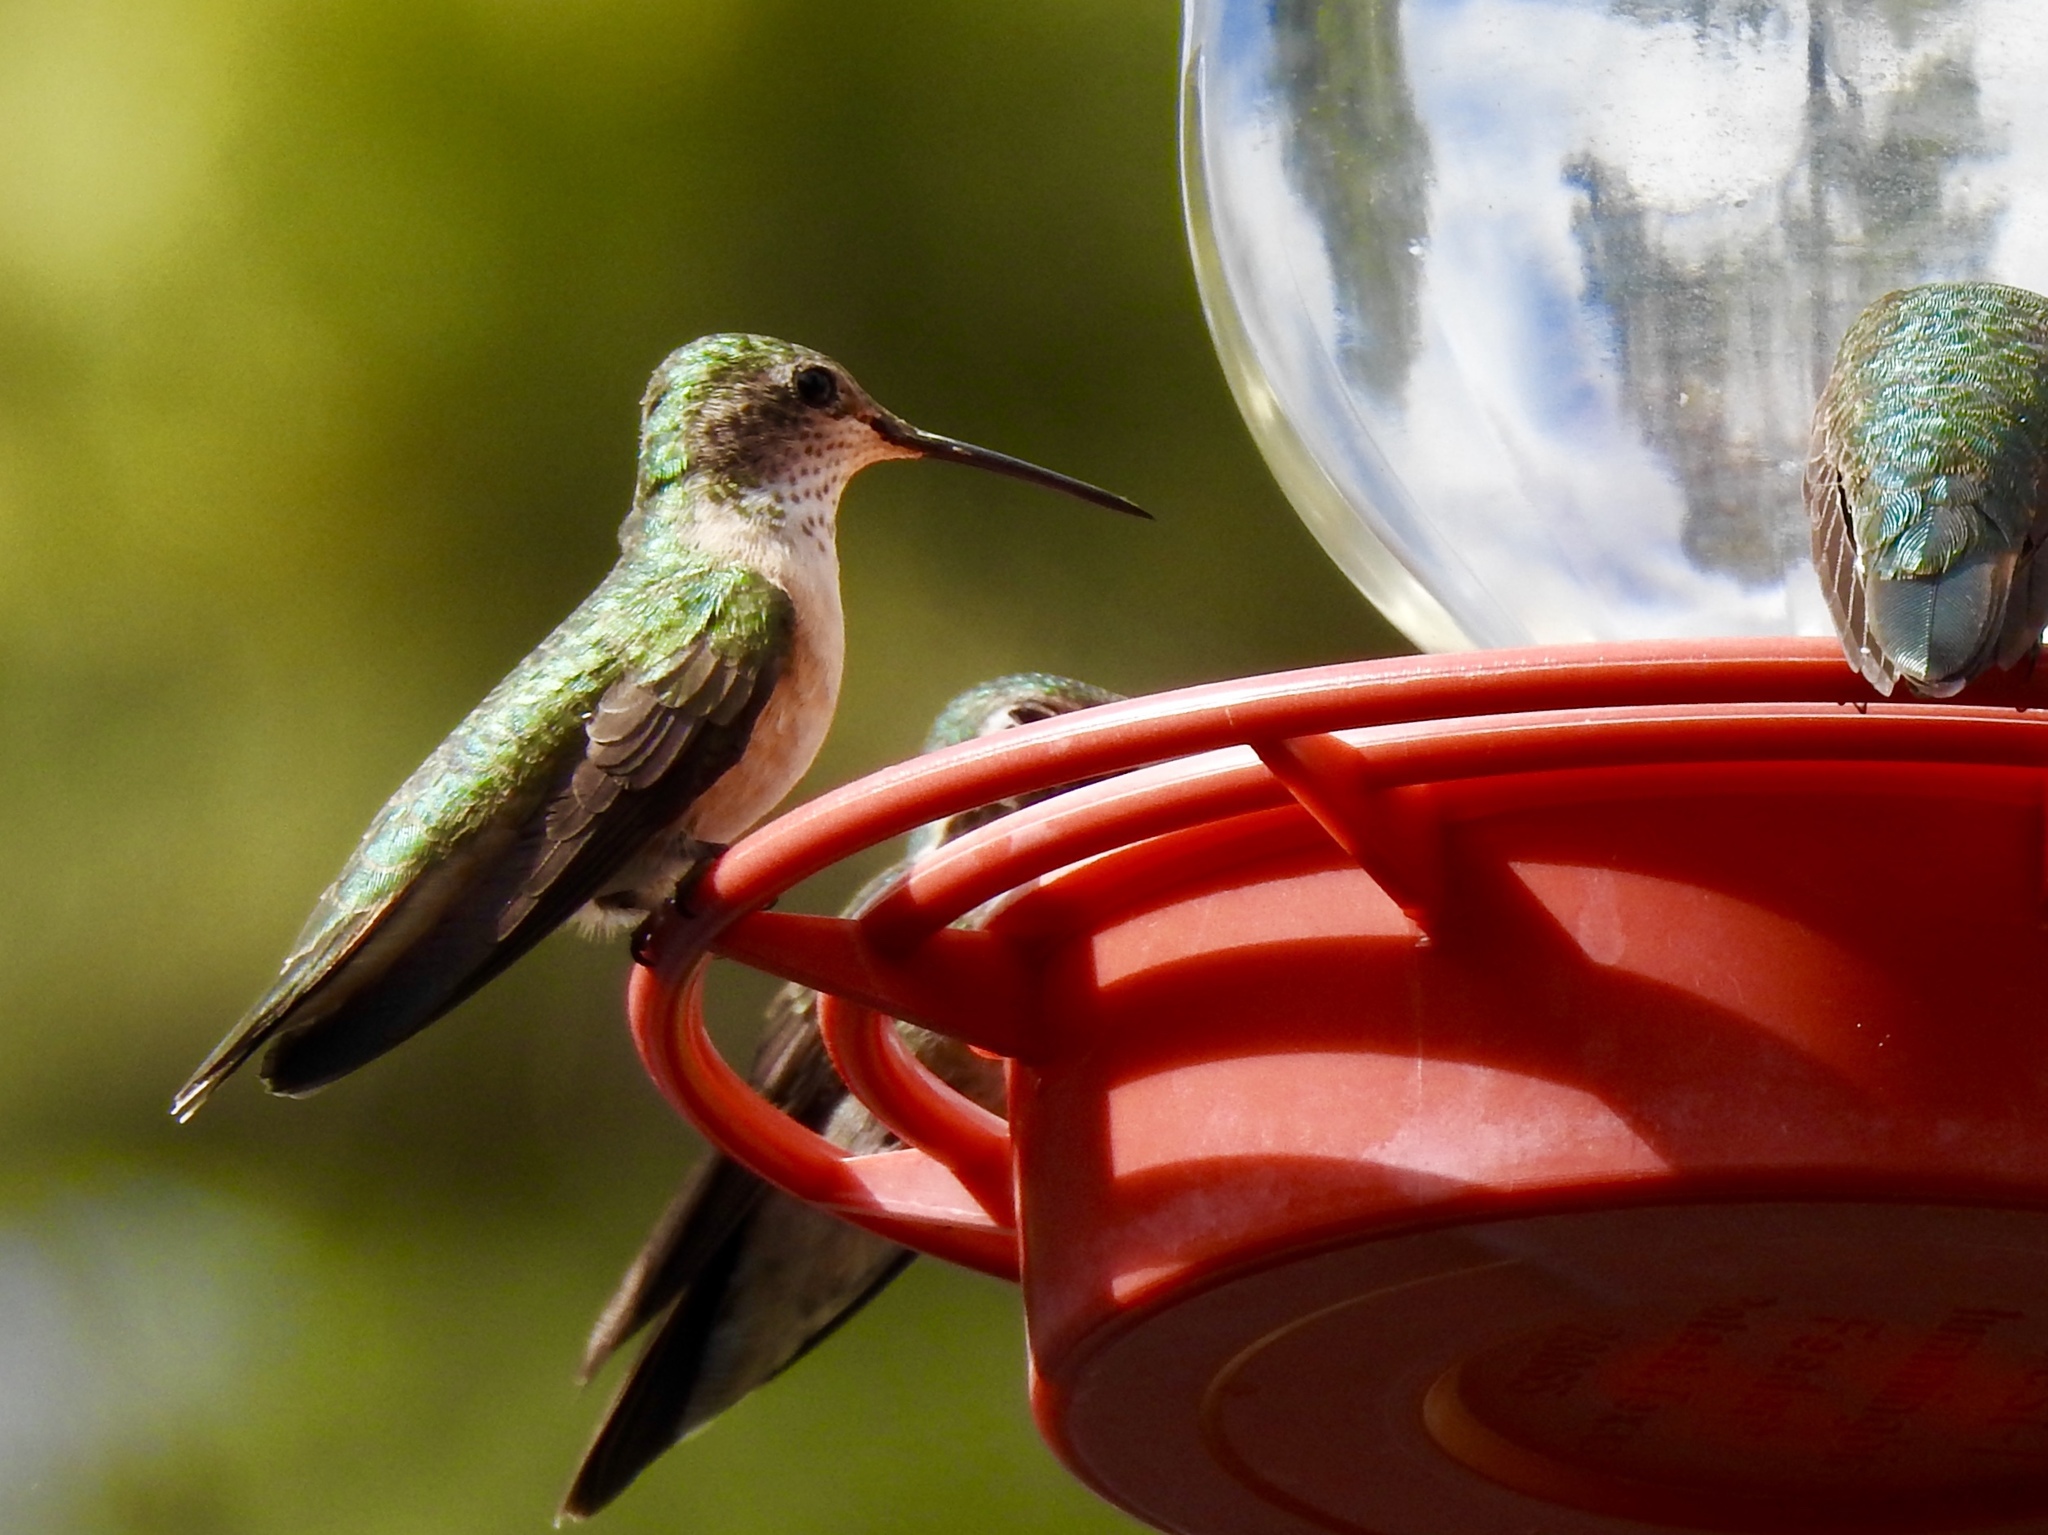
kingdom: Animalia
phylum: Chordata
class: Aves
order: Apodiformes
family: Trochilidae
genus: Selasphorus
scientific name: Selasphorus platycercus
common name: Broad-tailed hummingbird
